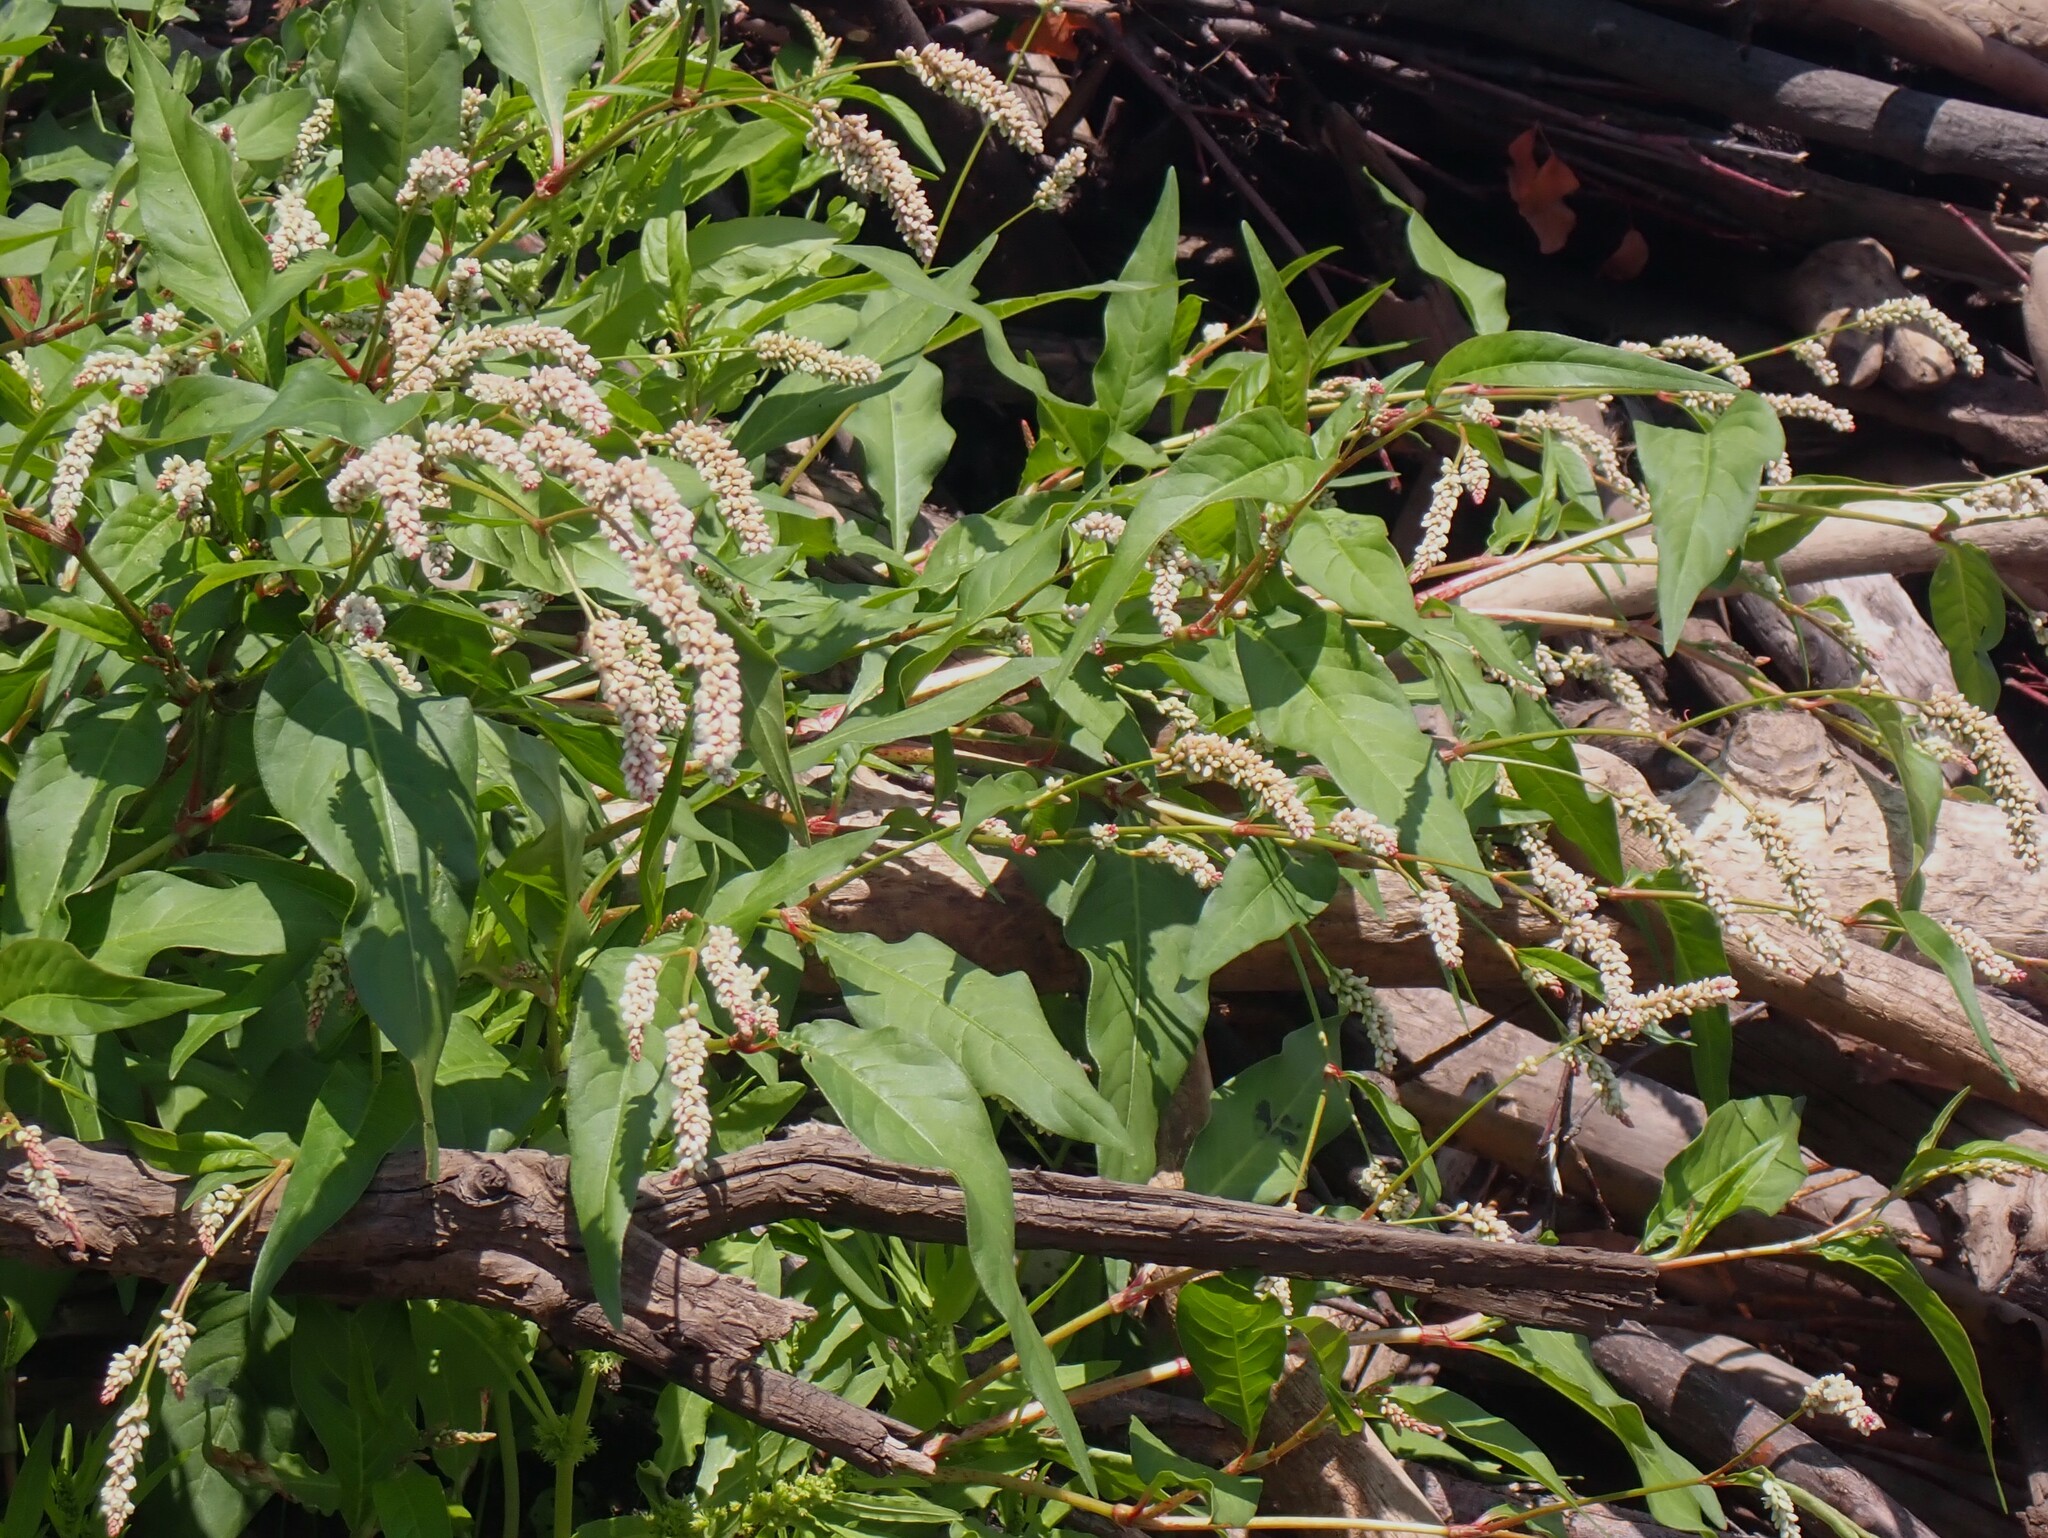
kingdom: Plantae
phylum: Tracheophyta
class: Magnoliopsida
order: Caryophyllales
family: Polygonaceae
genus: Persicaria
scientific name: Persicaria lapathifolia
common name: Curlytop knotweed
